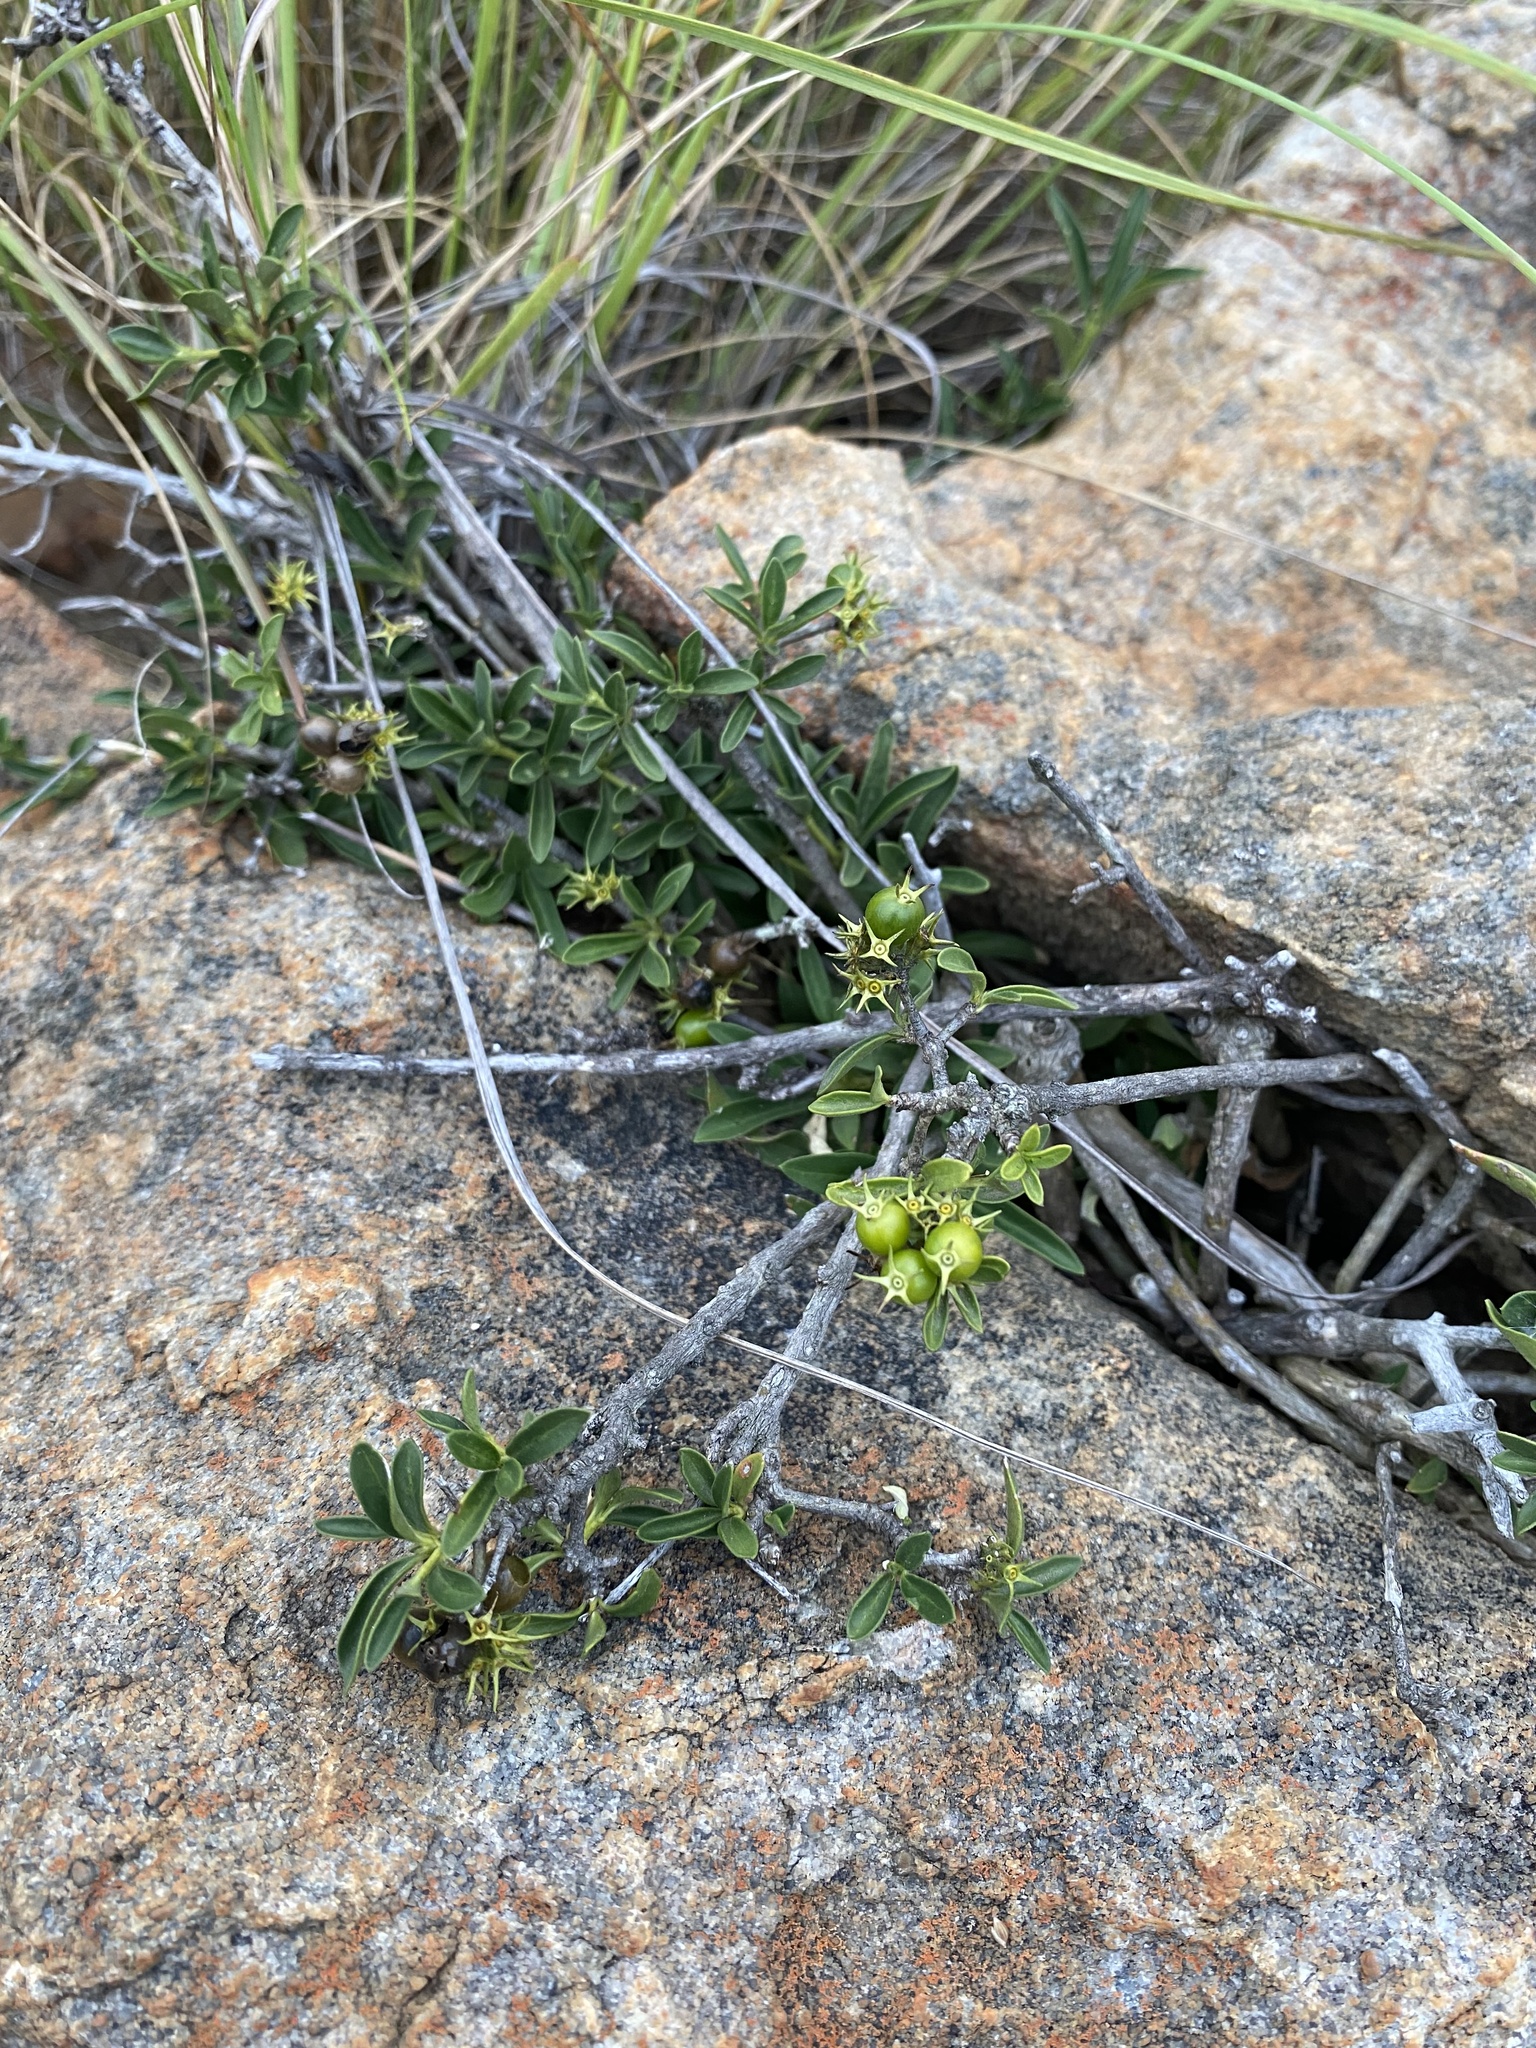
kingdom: Plantae
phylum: Tracheophyta
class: Magnoliopsida
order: Gentianales
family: Rubiaceae
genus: Pavetta
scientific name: Pavetta gracilifolia
